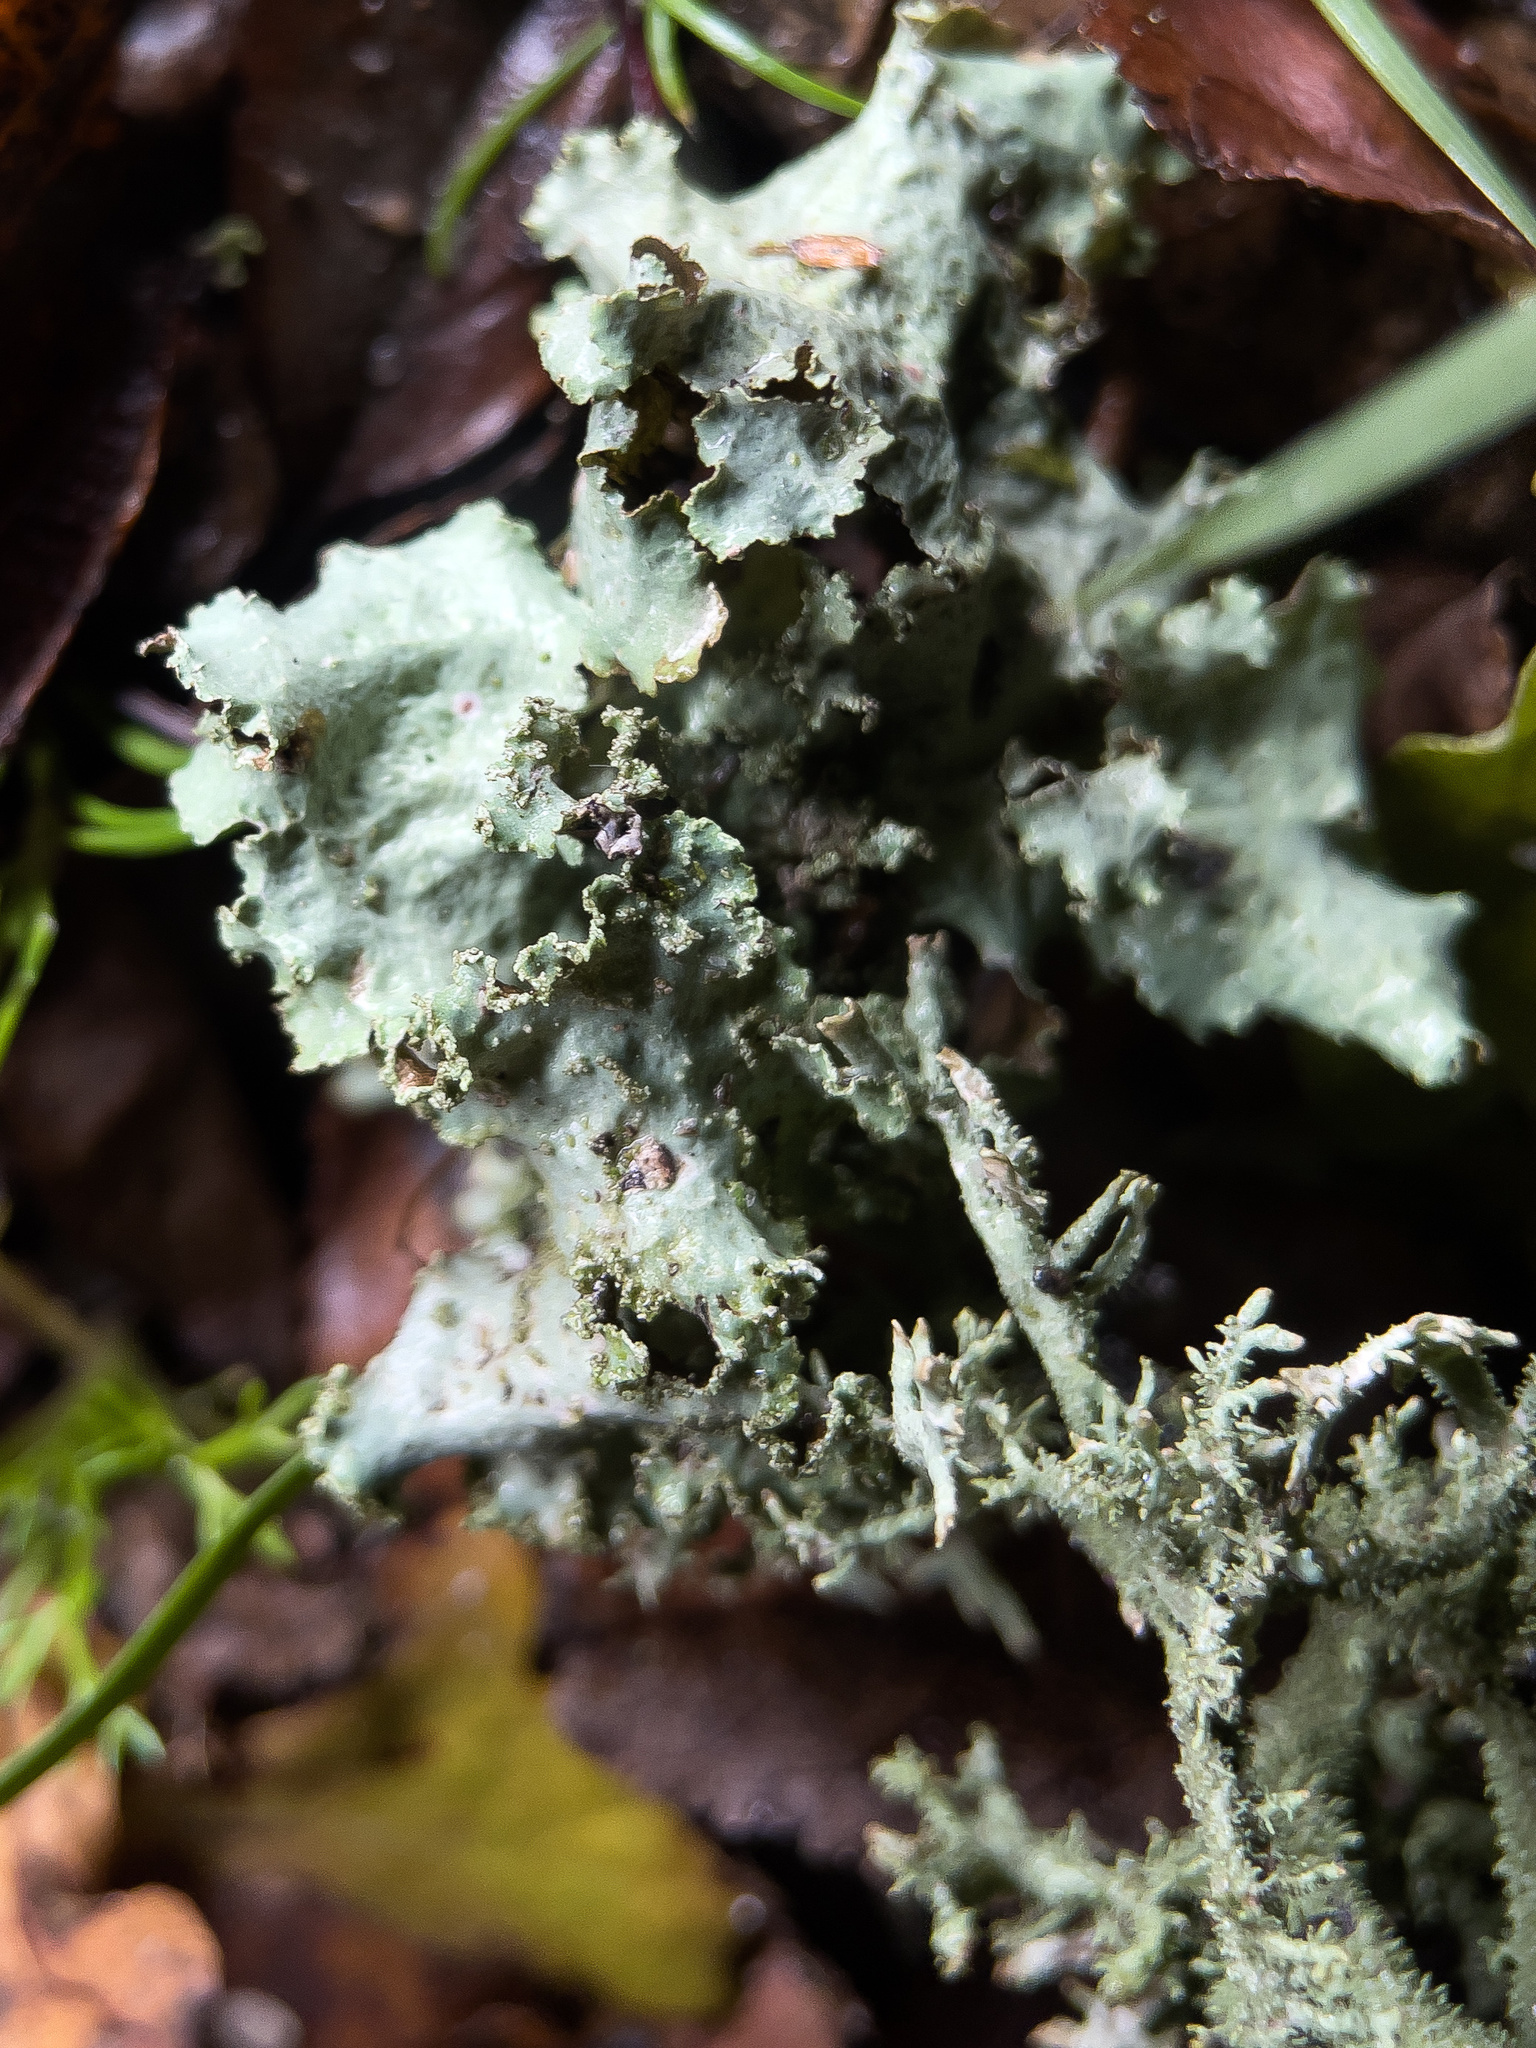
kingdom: Fungi
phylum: Ascomycota
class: Lecanoromycetes
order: Lecanorales
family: Parmeliaceae
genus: Platismatia
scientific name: Platismatia glauca
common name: Varied rag lichen
